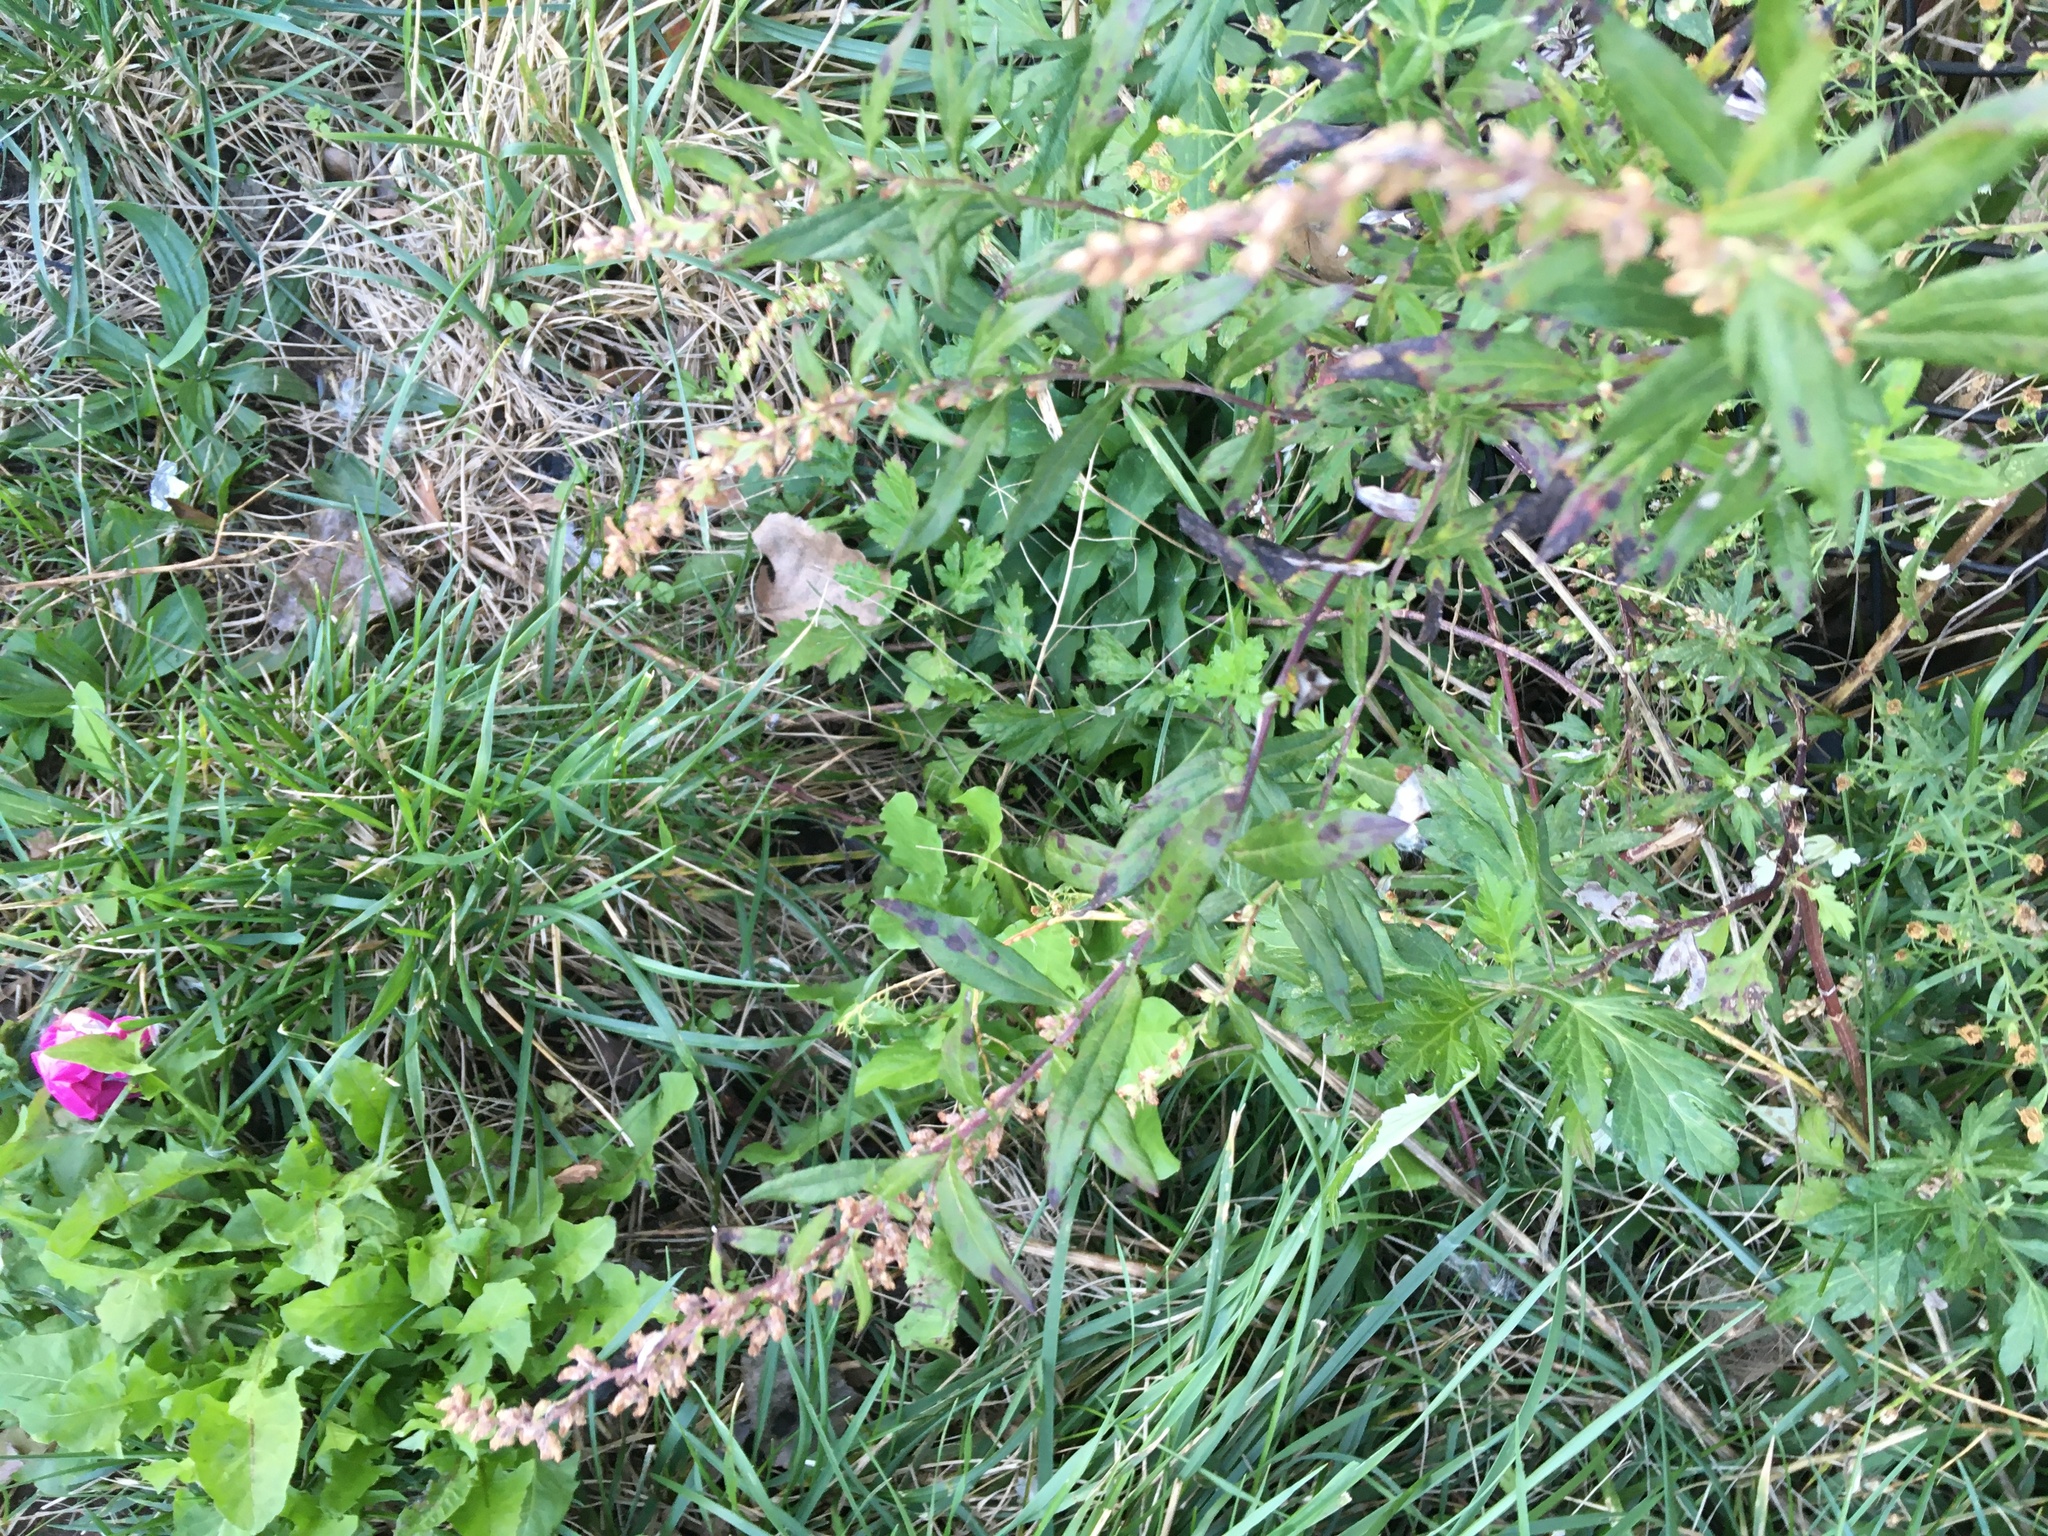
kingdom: Plantae
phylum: Tracheophyta
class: Magnoliopsida
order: Asterales
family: Asteraceae
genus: Artemisia
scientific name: Artemisia vulgaris
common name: Mugwort
